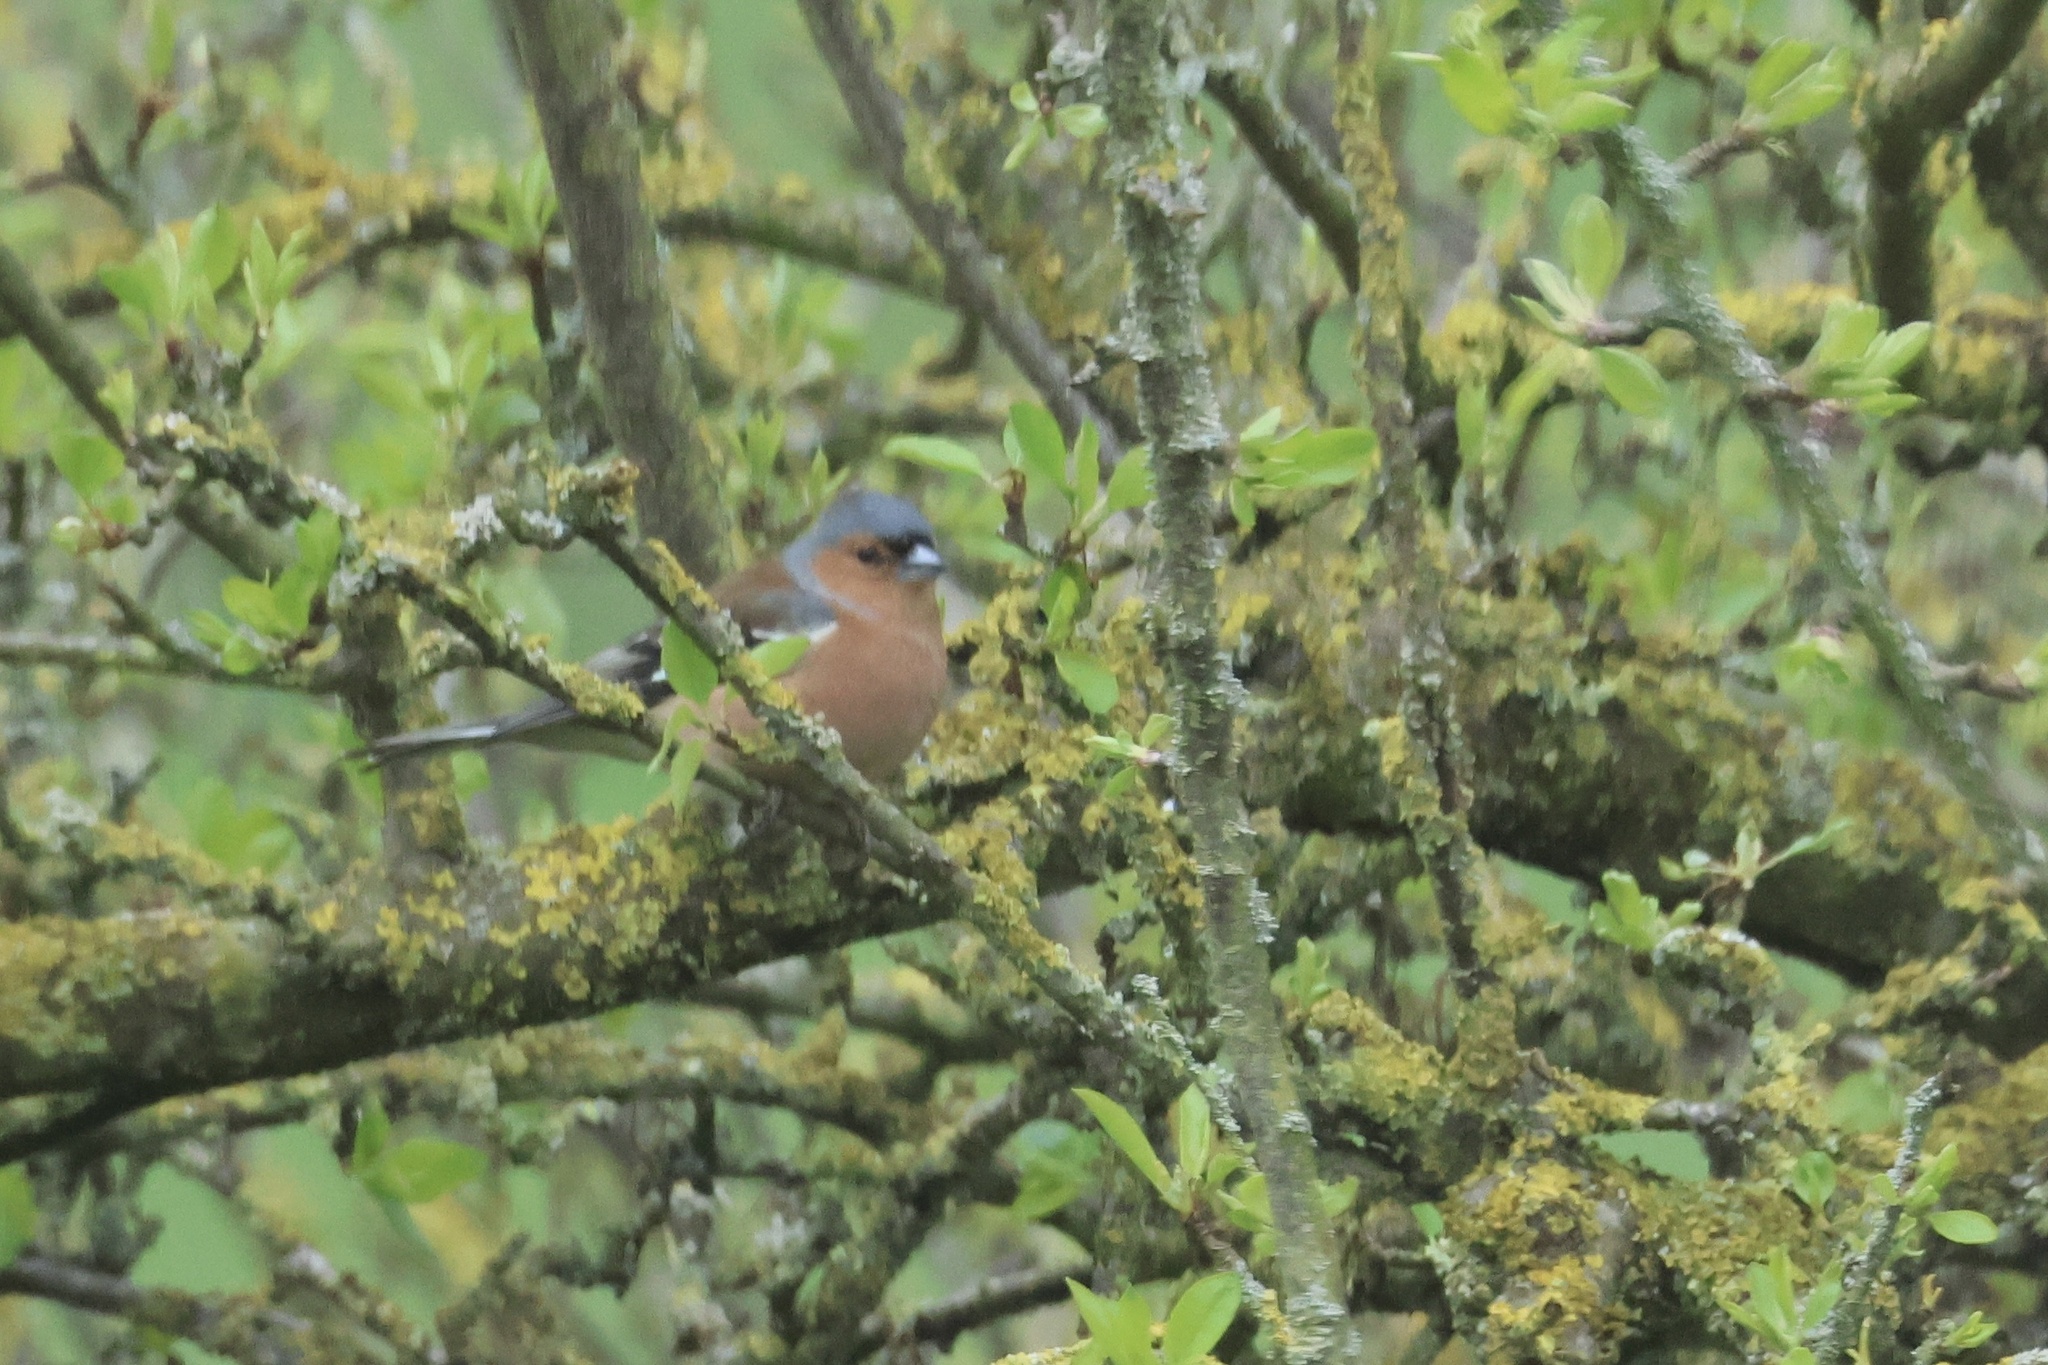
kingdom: Animalia
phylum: Chordata
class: Aves
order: Passeriformes
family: Fringillidae
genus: Fringilla
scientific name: Fringilla coelebs
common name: Common chaffinch
